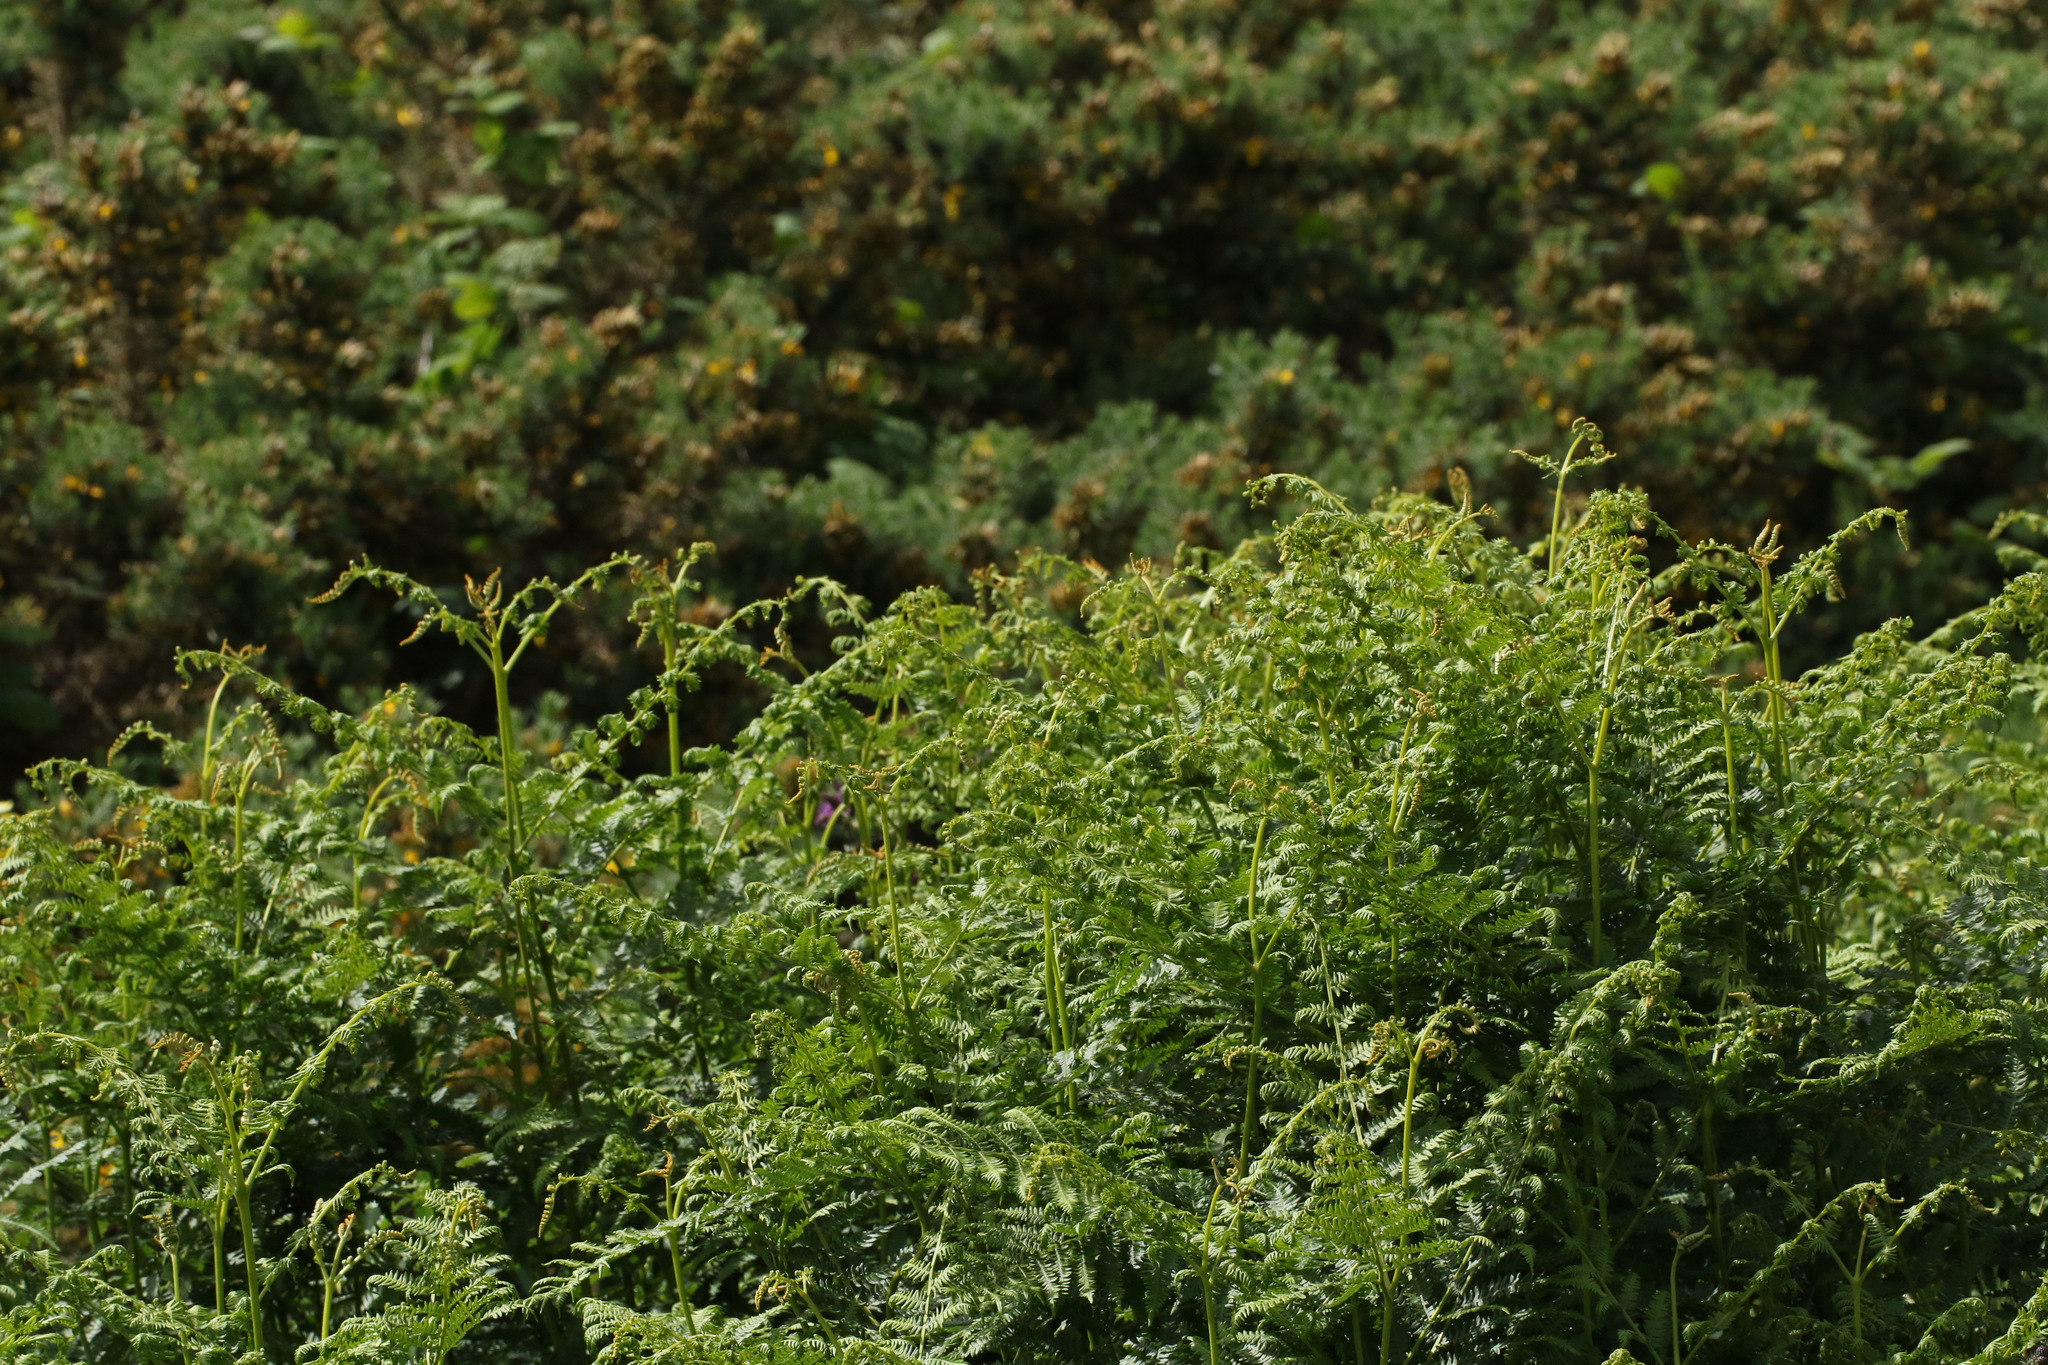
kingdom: Plantae
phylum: Tracheophyta
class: Polypodiopsida
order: Polypodiales
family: Dennstaedtiaceae
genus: Pteridium
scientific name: Pteridium aquilinum
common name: Bracken
